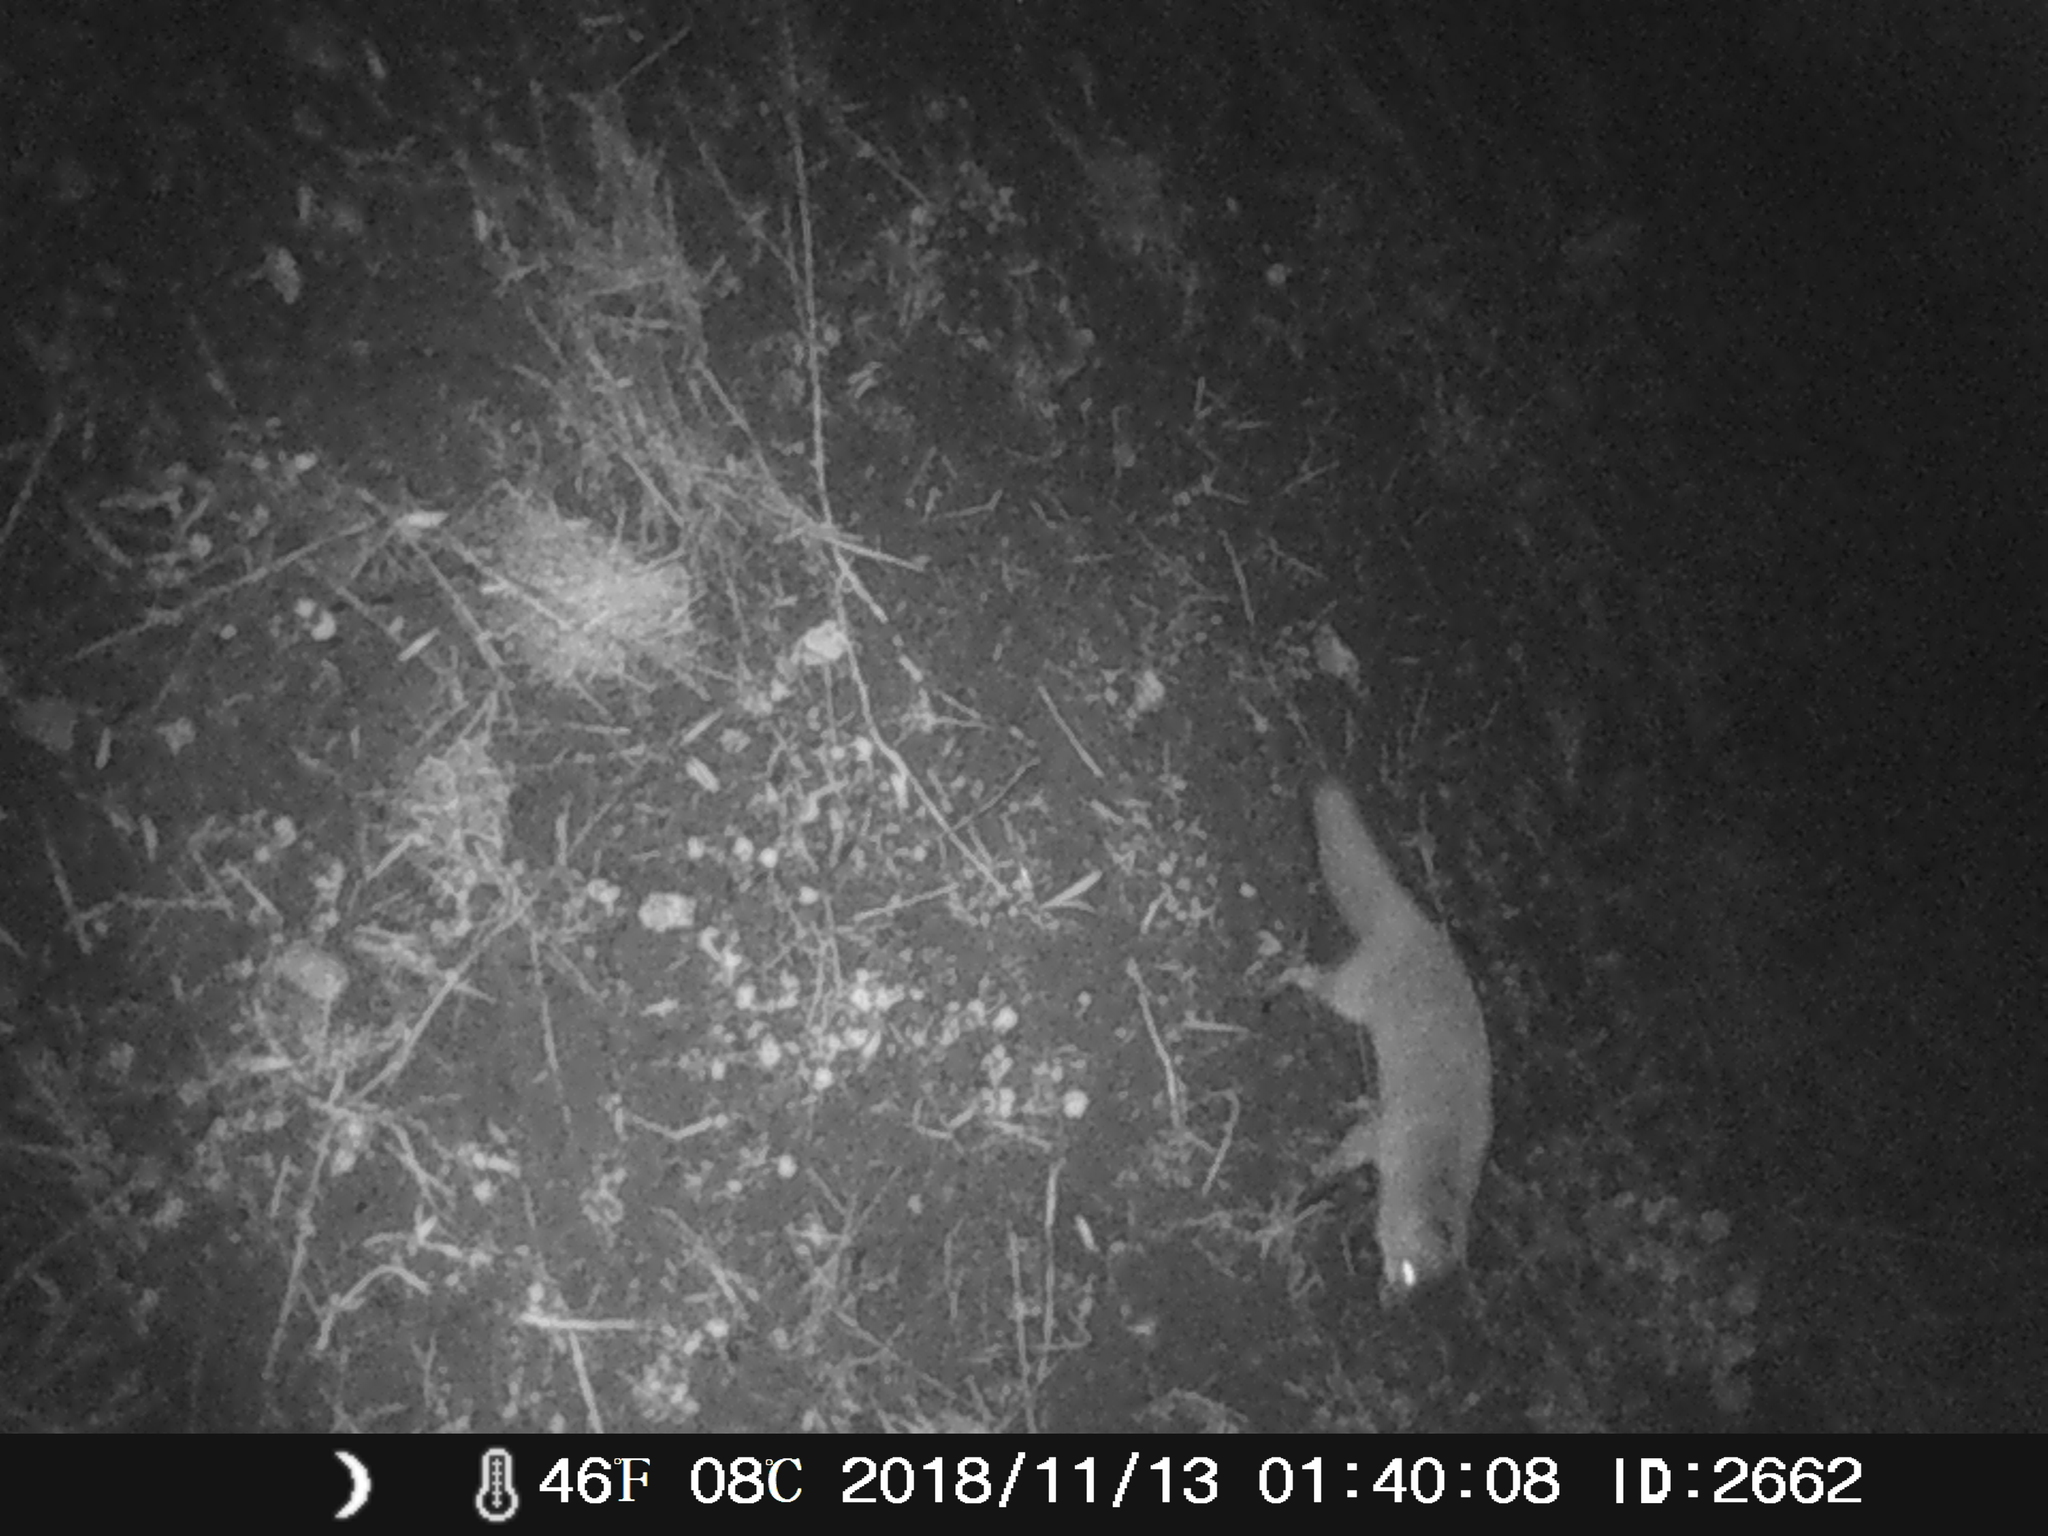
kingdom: Animalia
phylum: Chordata
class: Mammalia
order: Carnivora
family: Canidae
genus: Vulpes
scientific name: Vulpes vulpes
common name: Red fox
